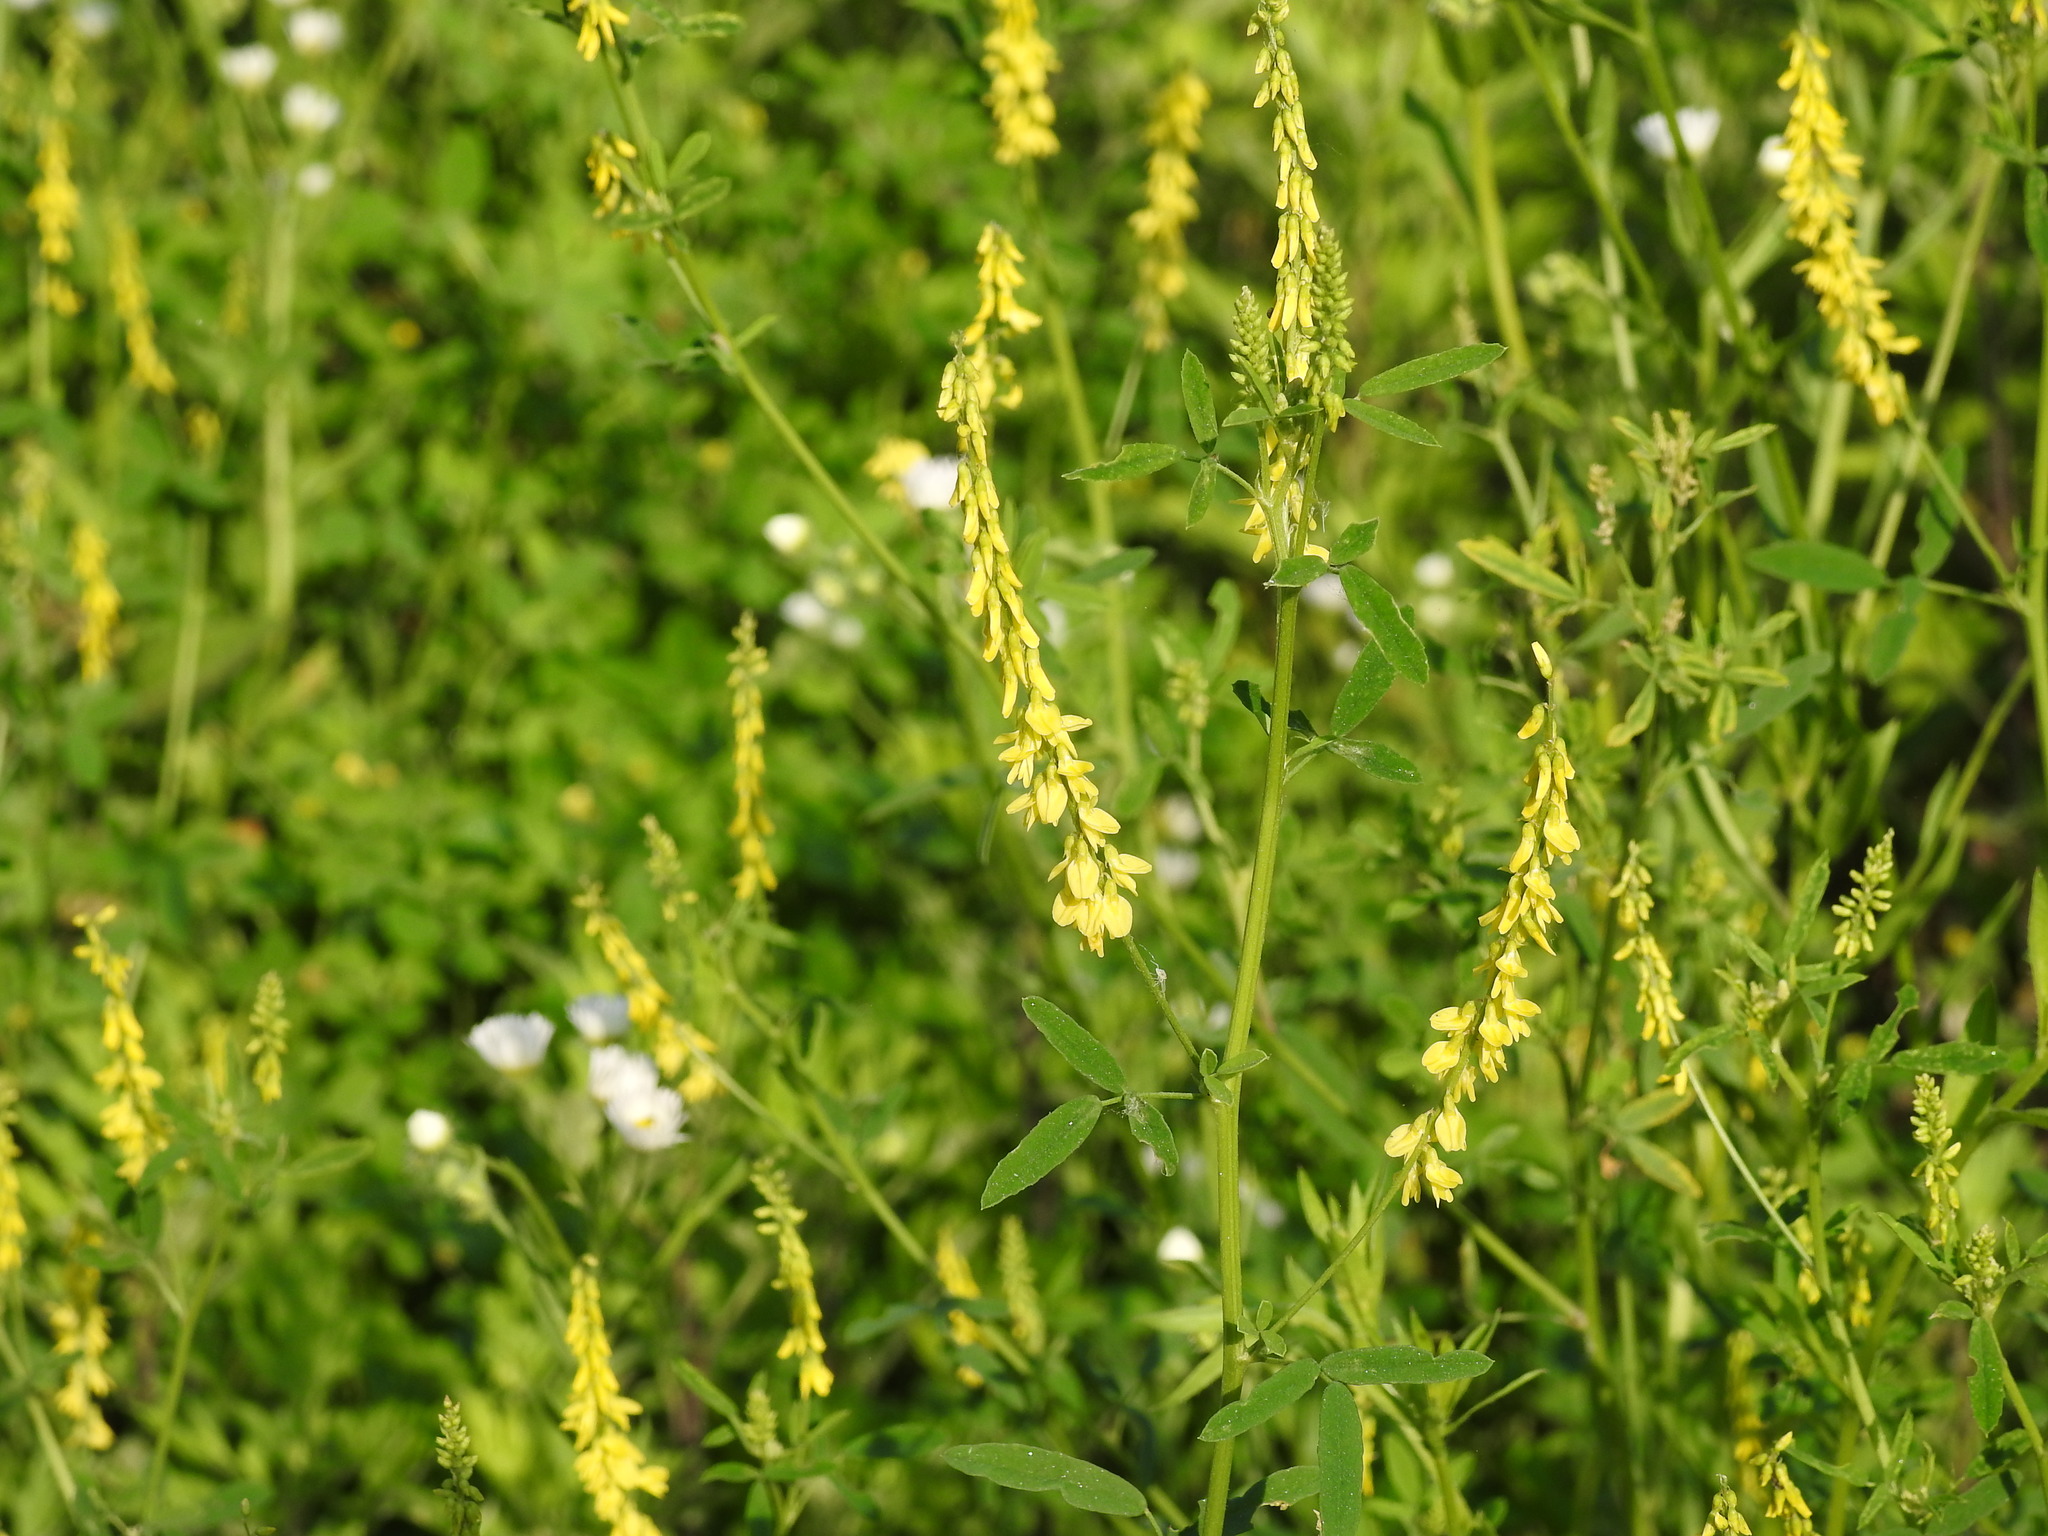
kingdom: Plantae
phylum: Tracheophyta
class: Magnoliopsida
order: Fabales
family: Fabaceae
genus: Melilotus
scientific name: Melilotus officinalis
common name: Sweetclover
